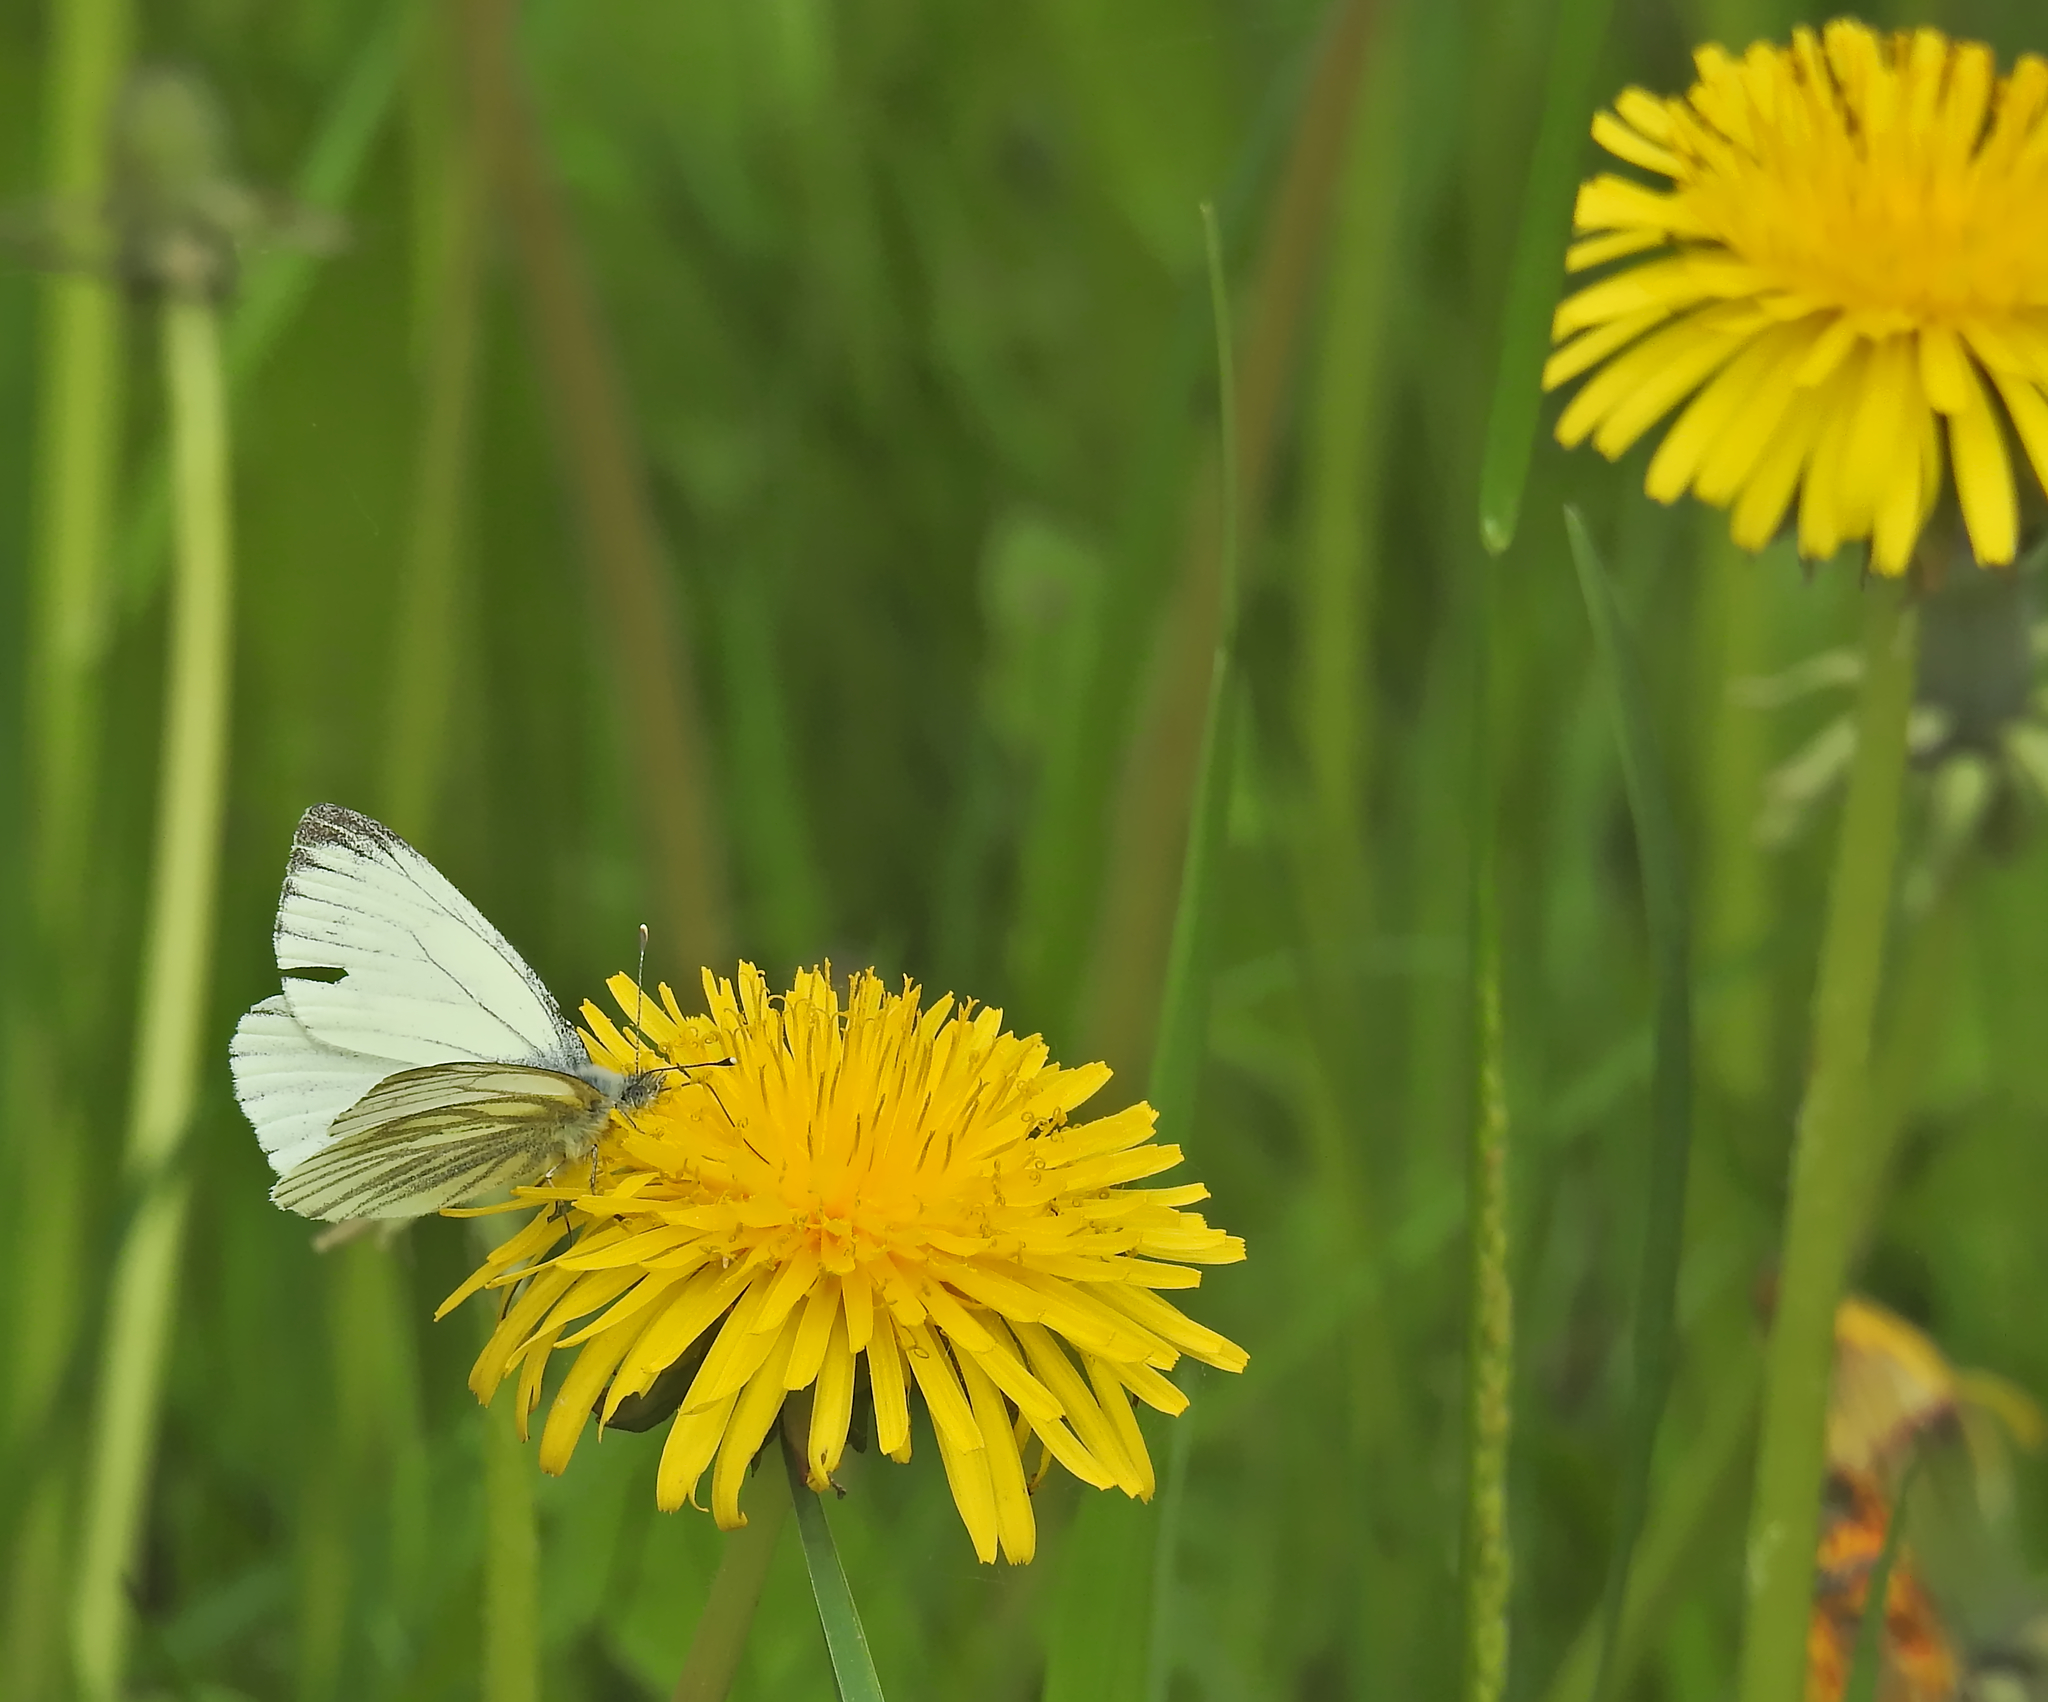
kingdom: Animalia
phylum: Arthropoda
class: Insecta
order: Lepidoptera
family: Pieridae
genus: Pieris
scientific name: Pieris napi
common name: Green-veined white
